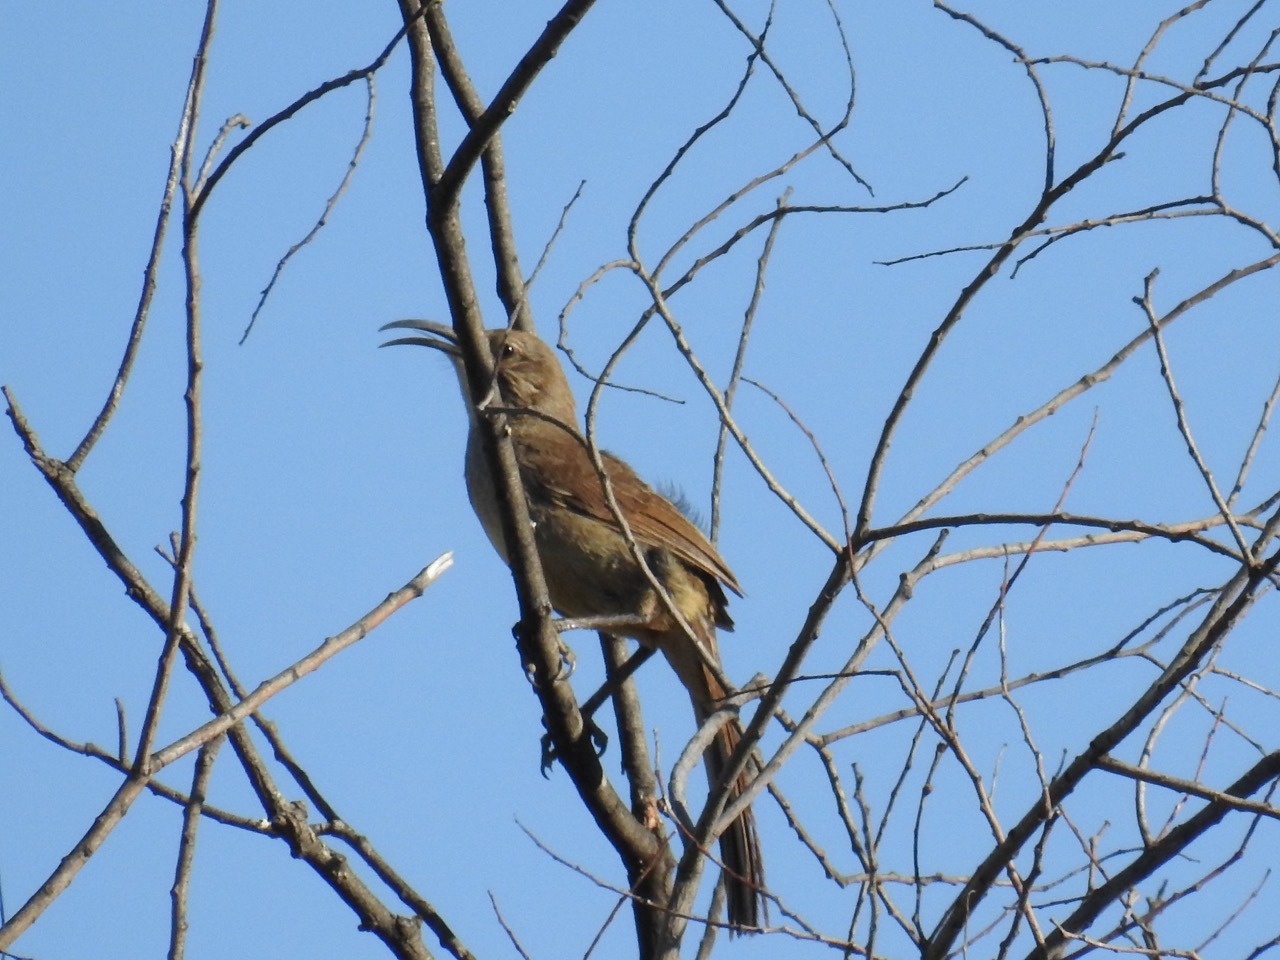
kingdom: Animalia
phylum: Chordata
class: Aves
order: Passeriformes
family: Mimidae
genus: Toxostoma
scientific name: Toxostoma redivivum
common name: California thrasher
